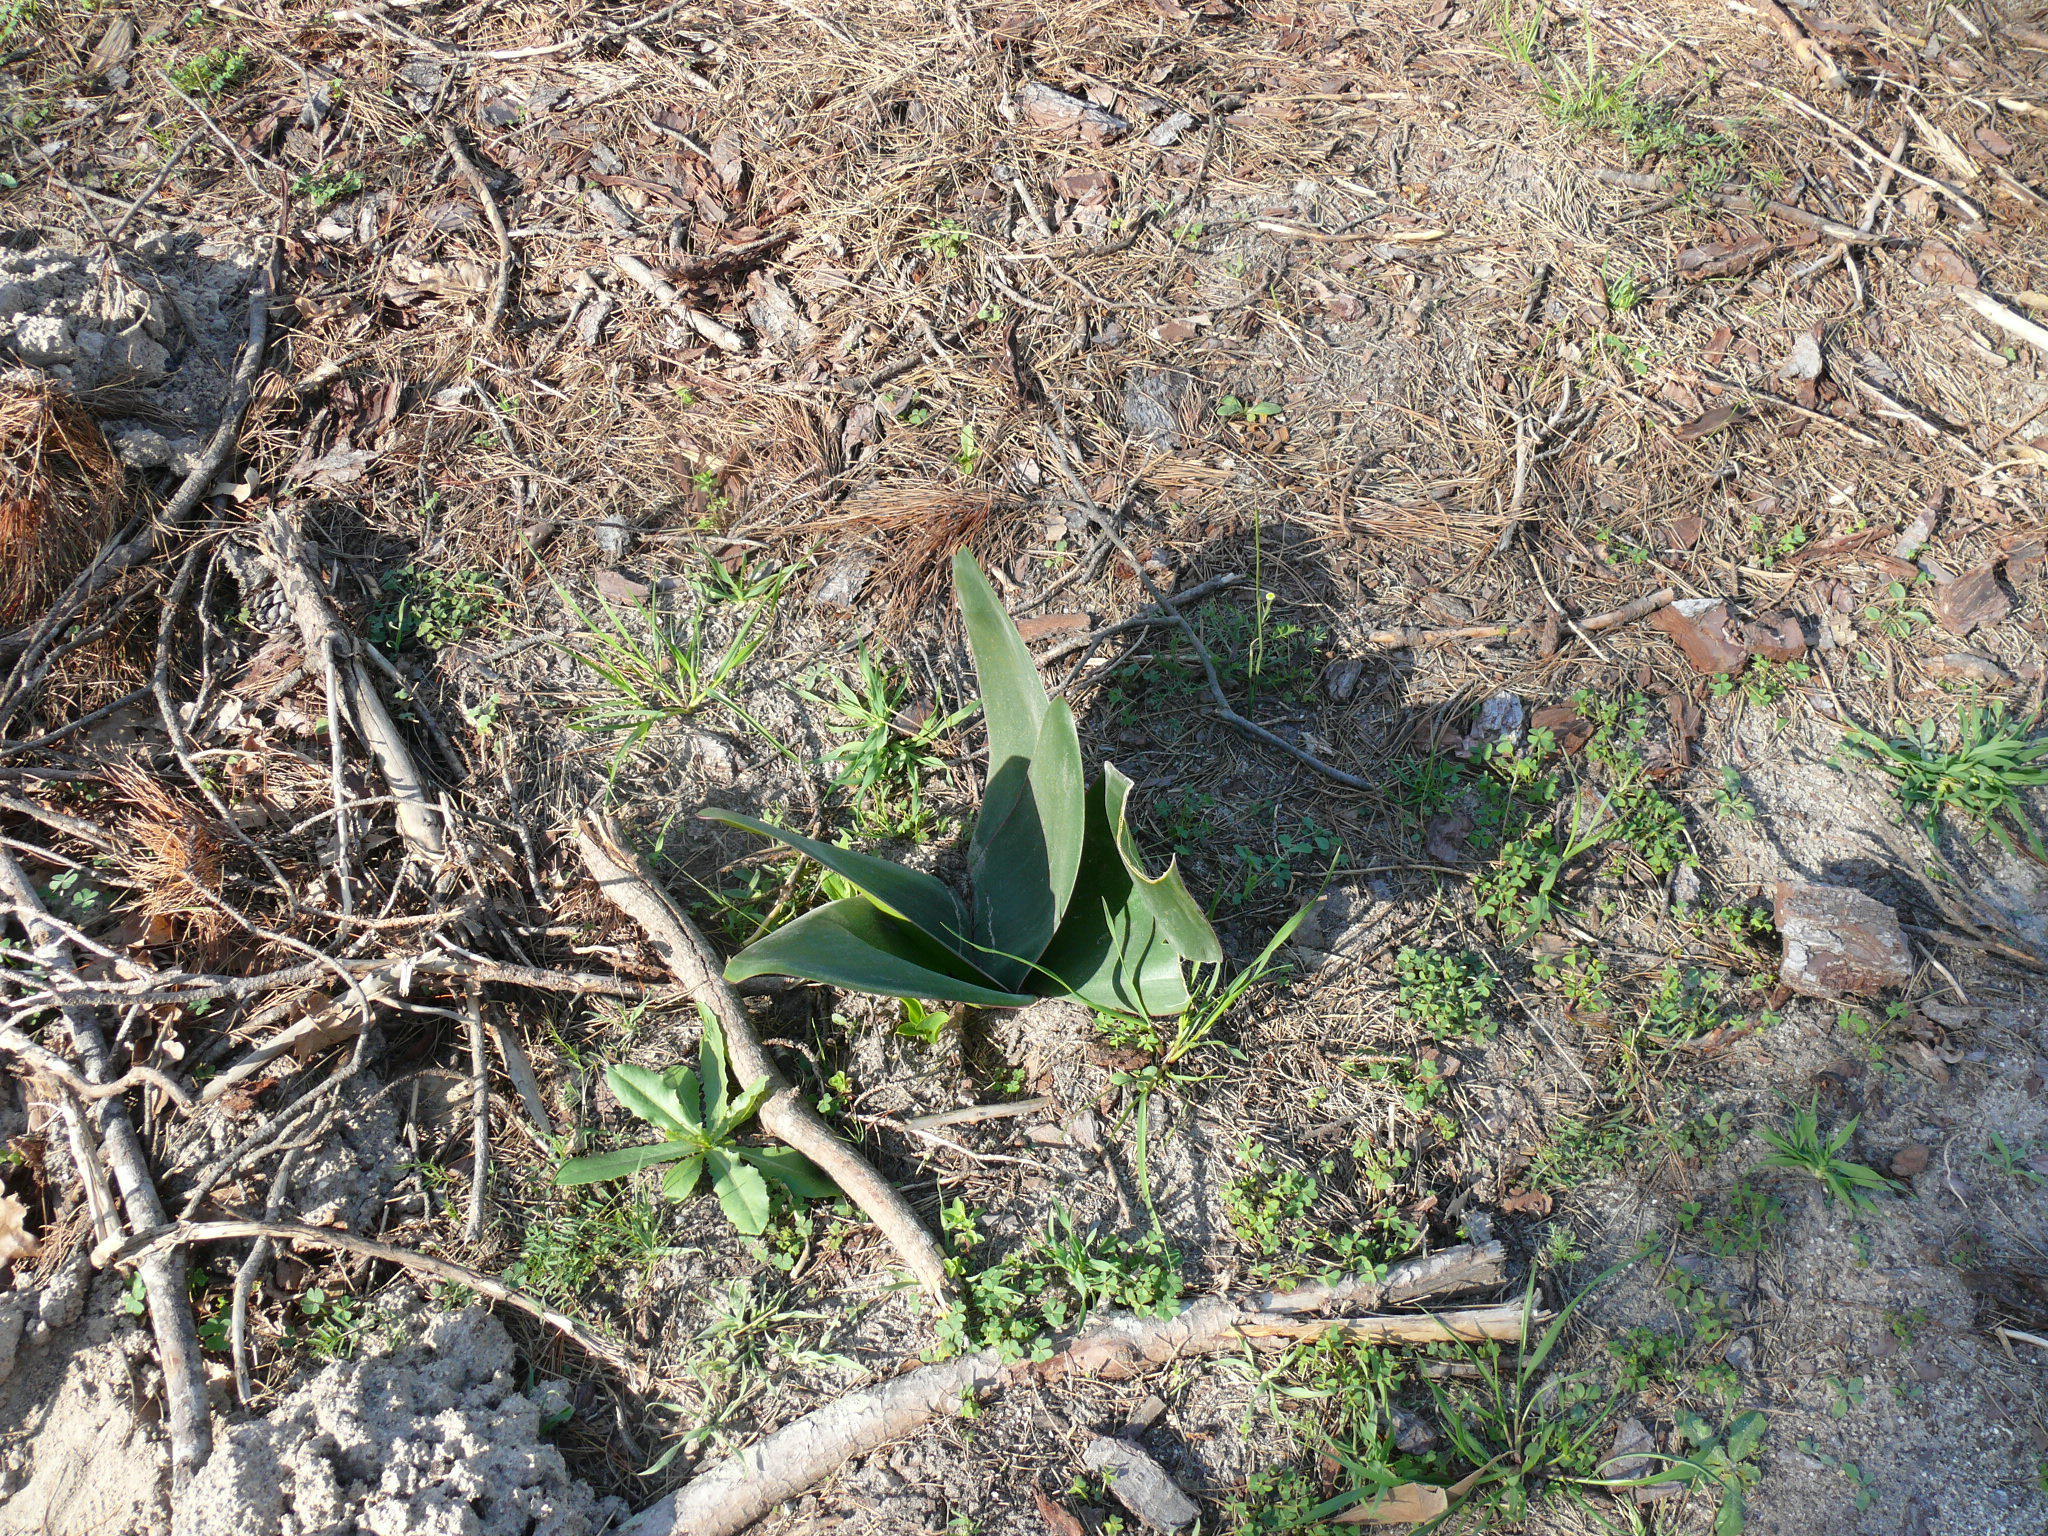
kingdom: Plantae
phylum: Tracheophyta
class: Liliopsida
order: Asparagales
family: Amaryllidaceae
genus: Brunsvigia
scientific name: Brunsvigia orientalis
